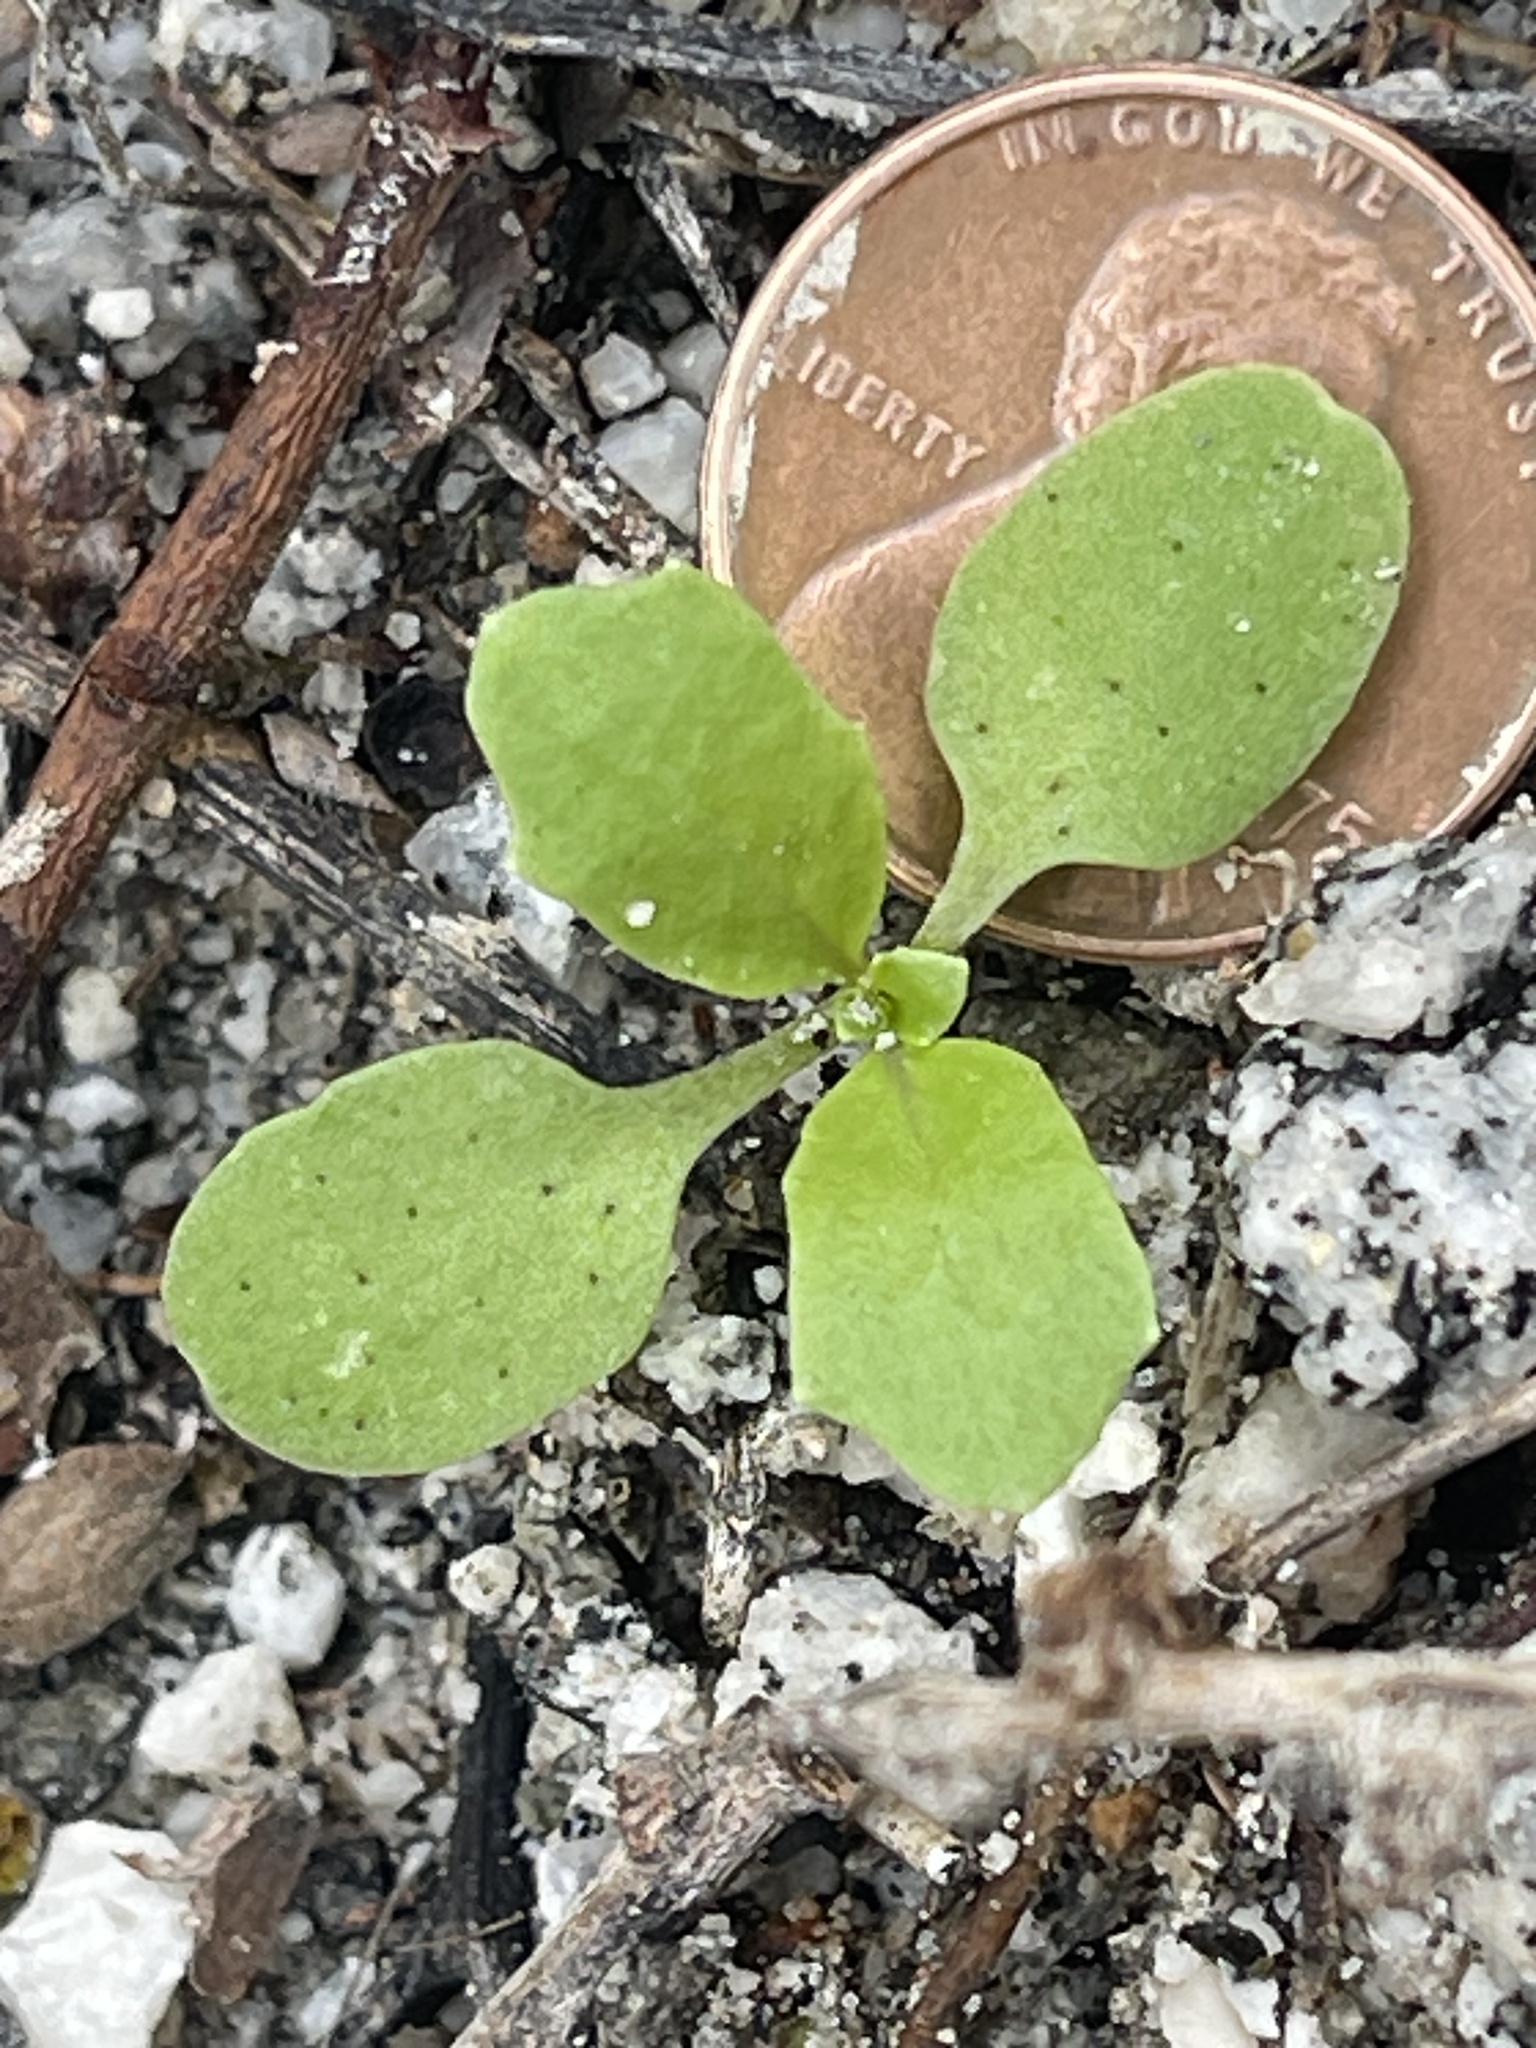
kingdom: Plantae
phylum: Tracheophyta
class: Magnoliopsida
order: Brassicales
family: Brassicaceae
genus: Streptanthus
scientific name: Streptanthus cooperi
